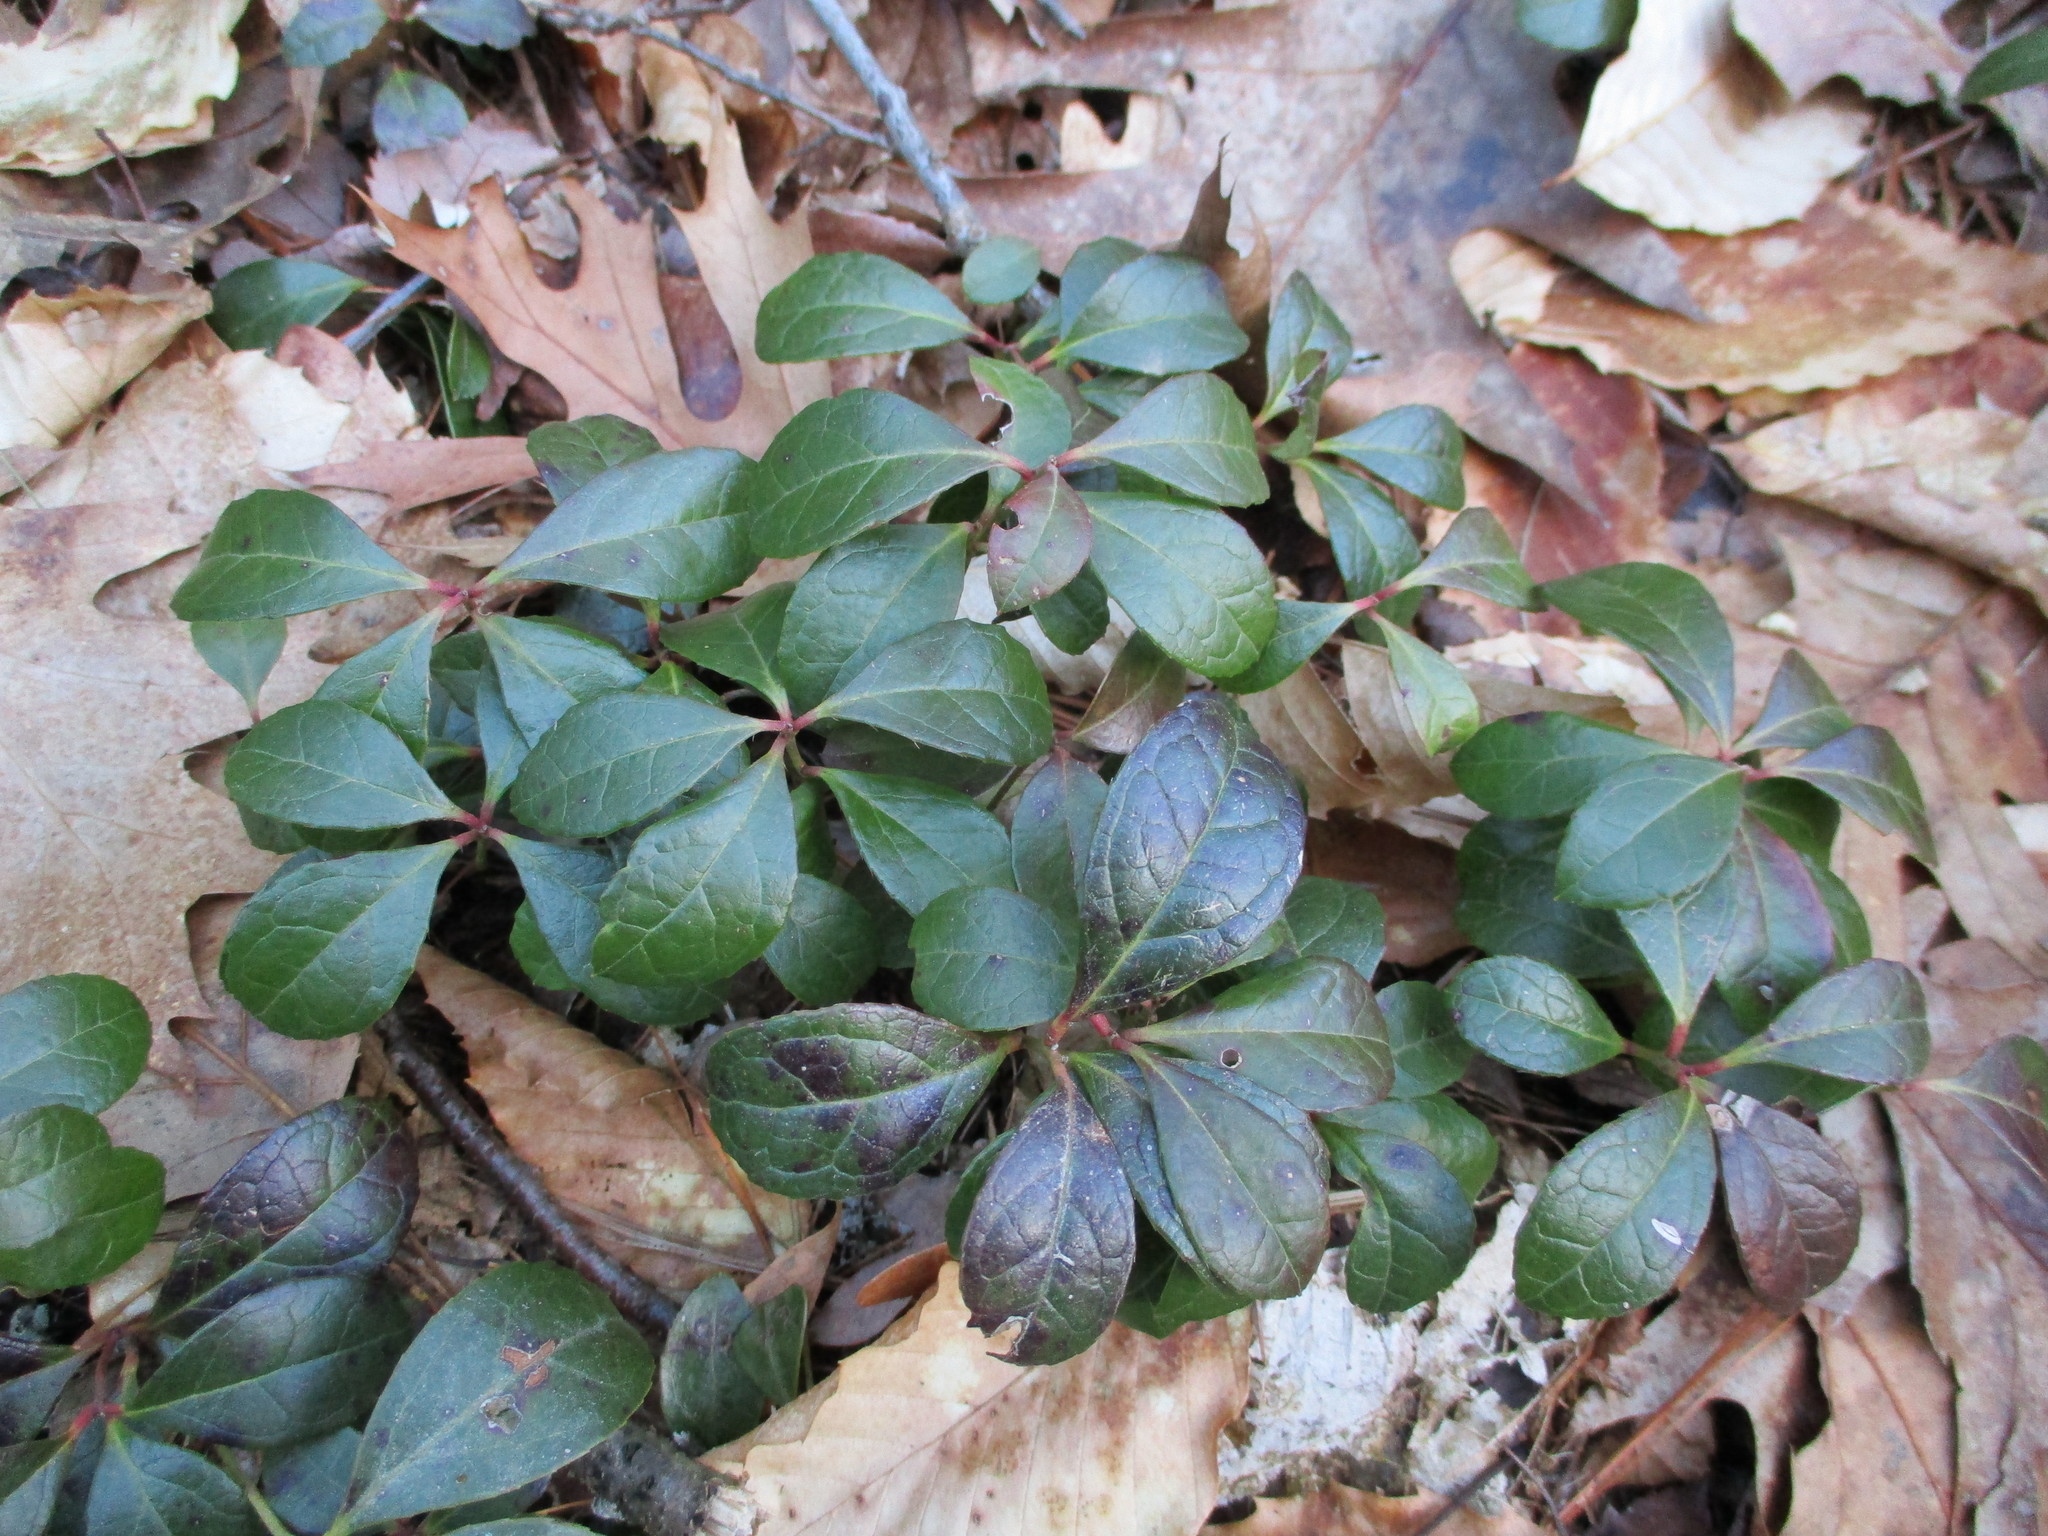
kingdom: Plantae
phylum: Tracheophyta
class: Magnoliopsida
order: Ericales
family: Ericaceae
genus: Gaultheria
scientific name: Gaultheria procumbens
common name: Checkerberry
